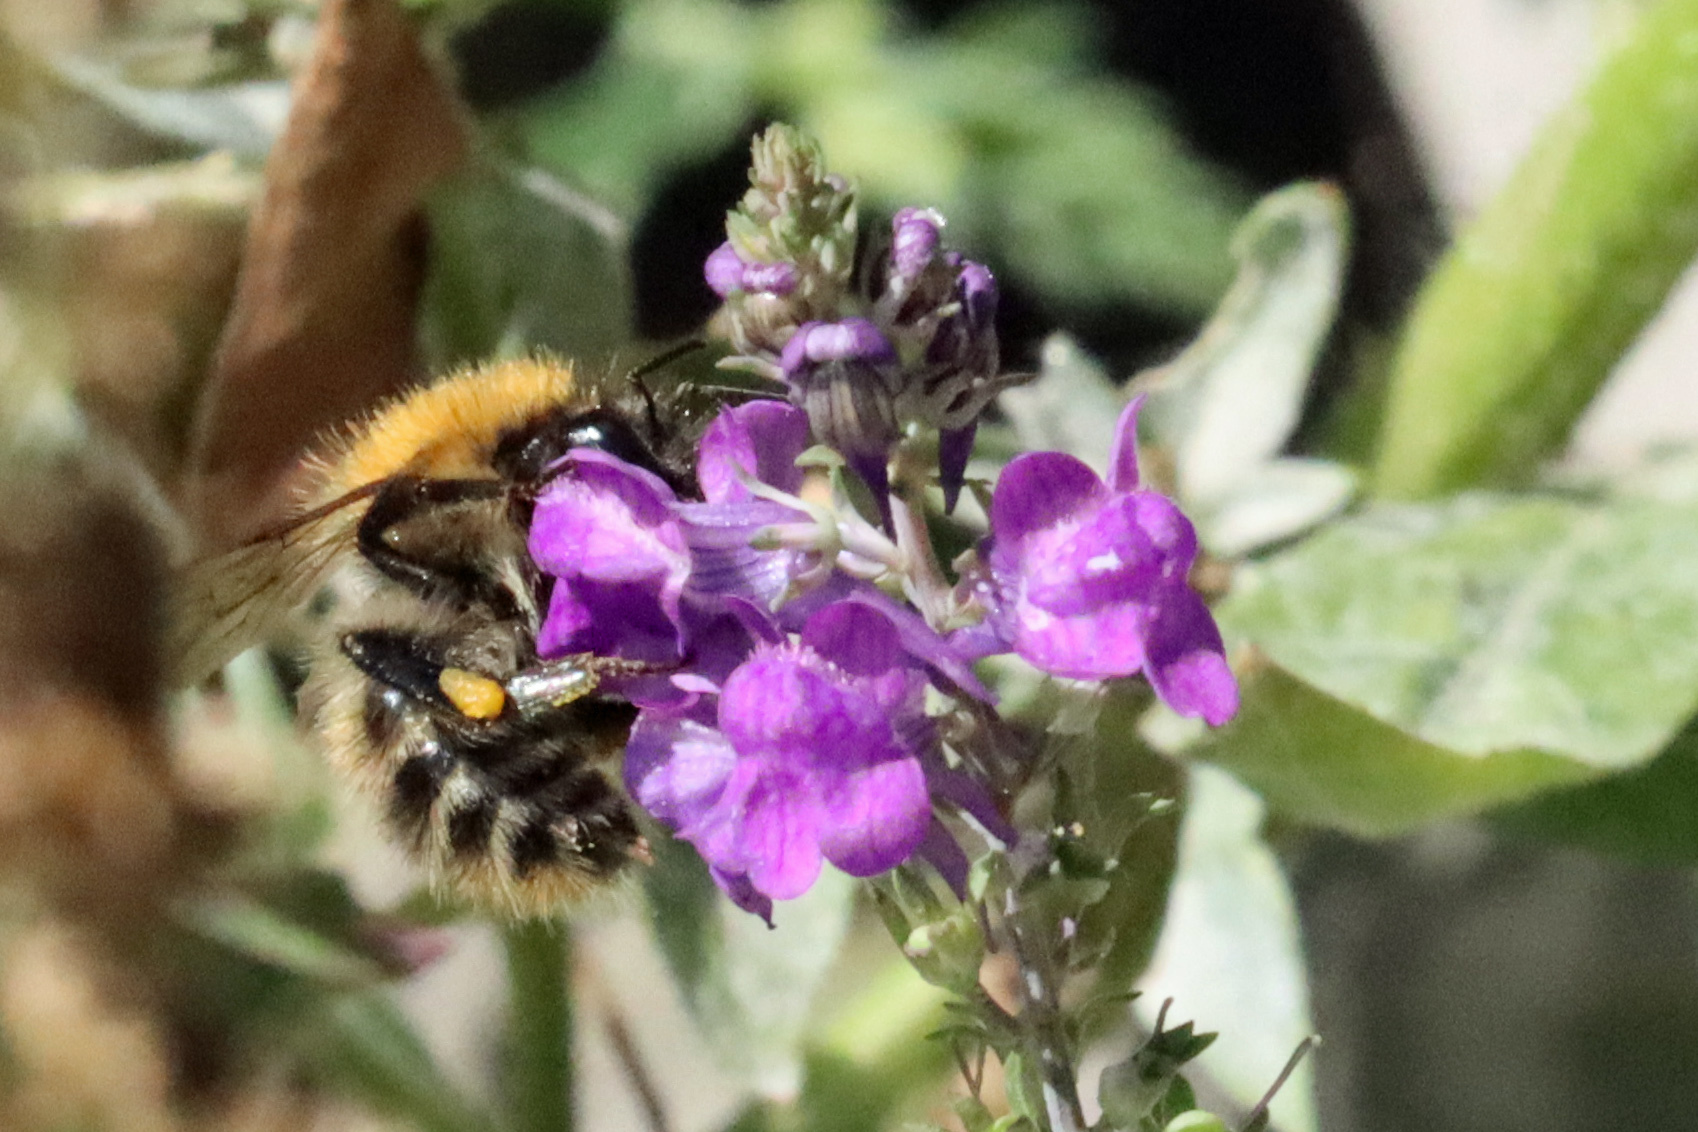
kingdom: Animalia
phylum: Arthropoda
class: Insecta
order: Hymenoptera
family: Apidae
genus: Bombus
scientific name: Bombus pascuorum
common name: Common carder bee
